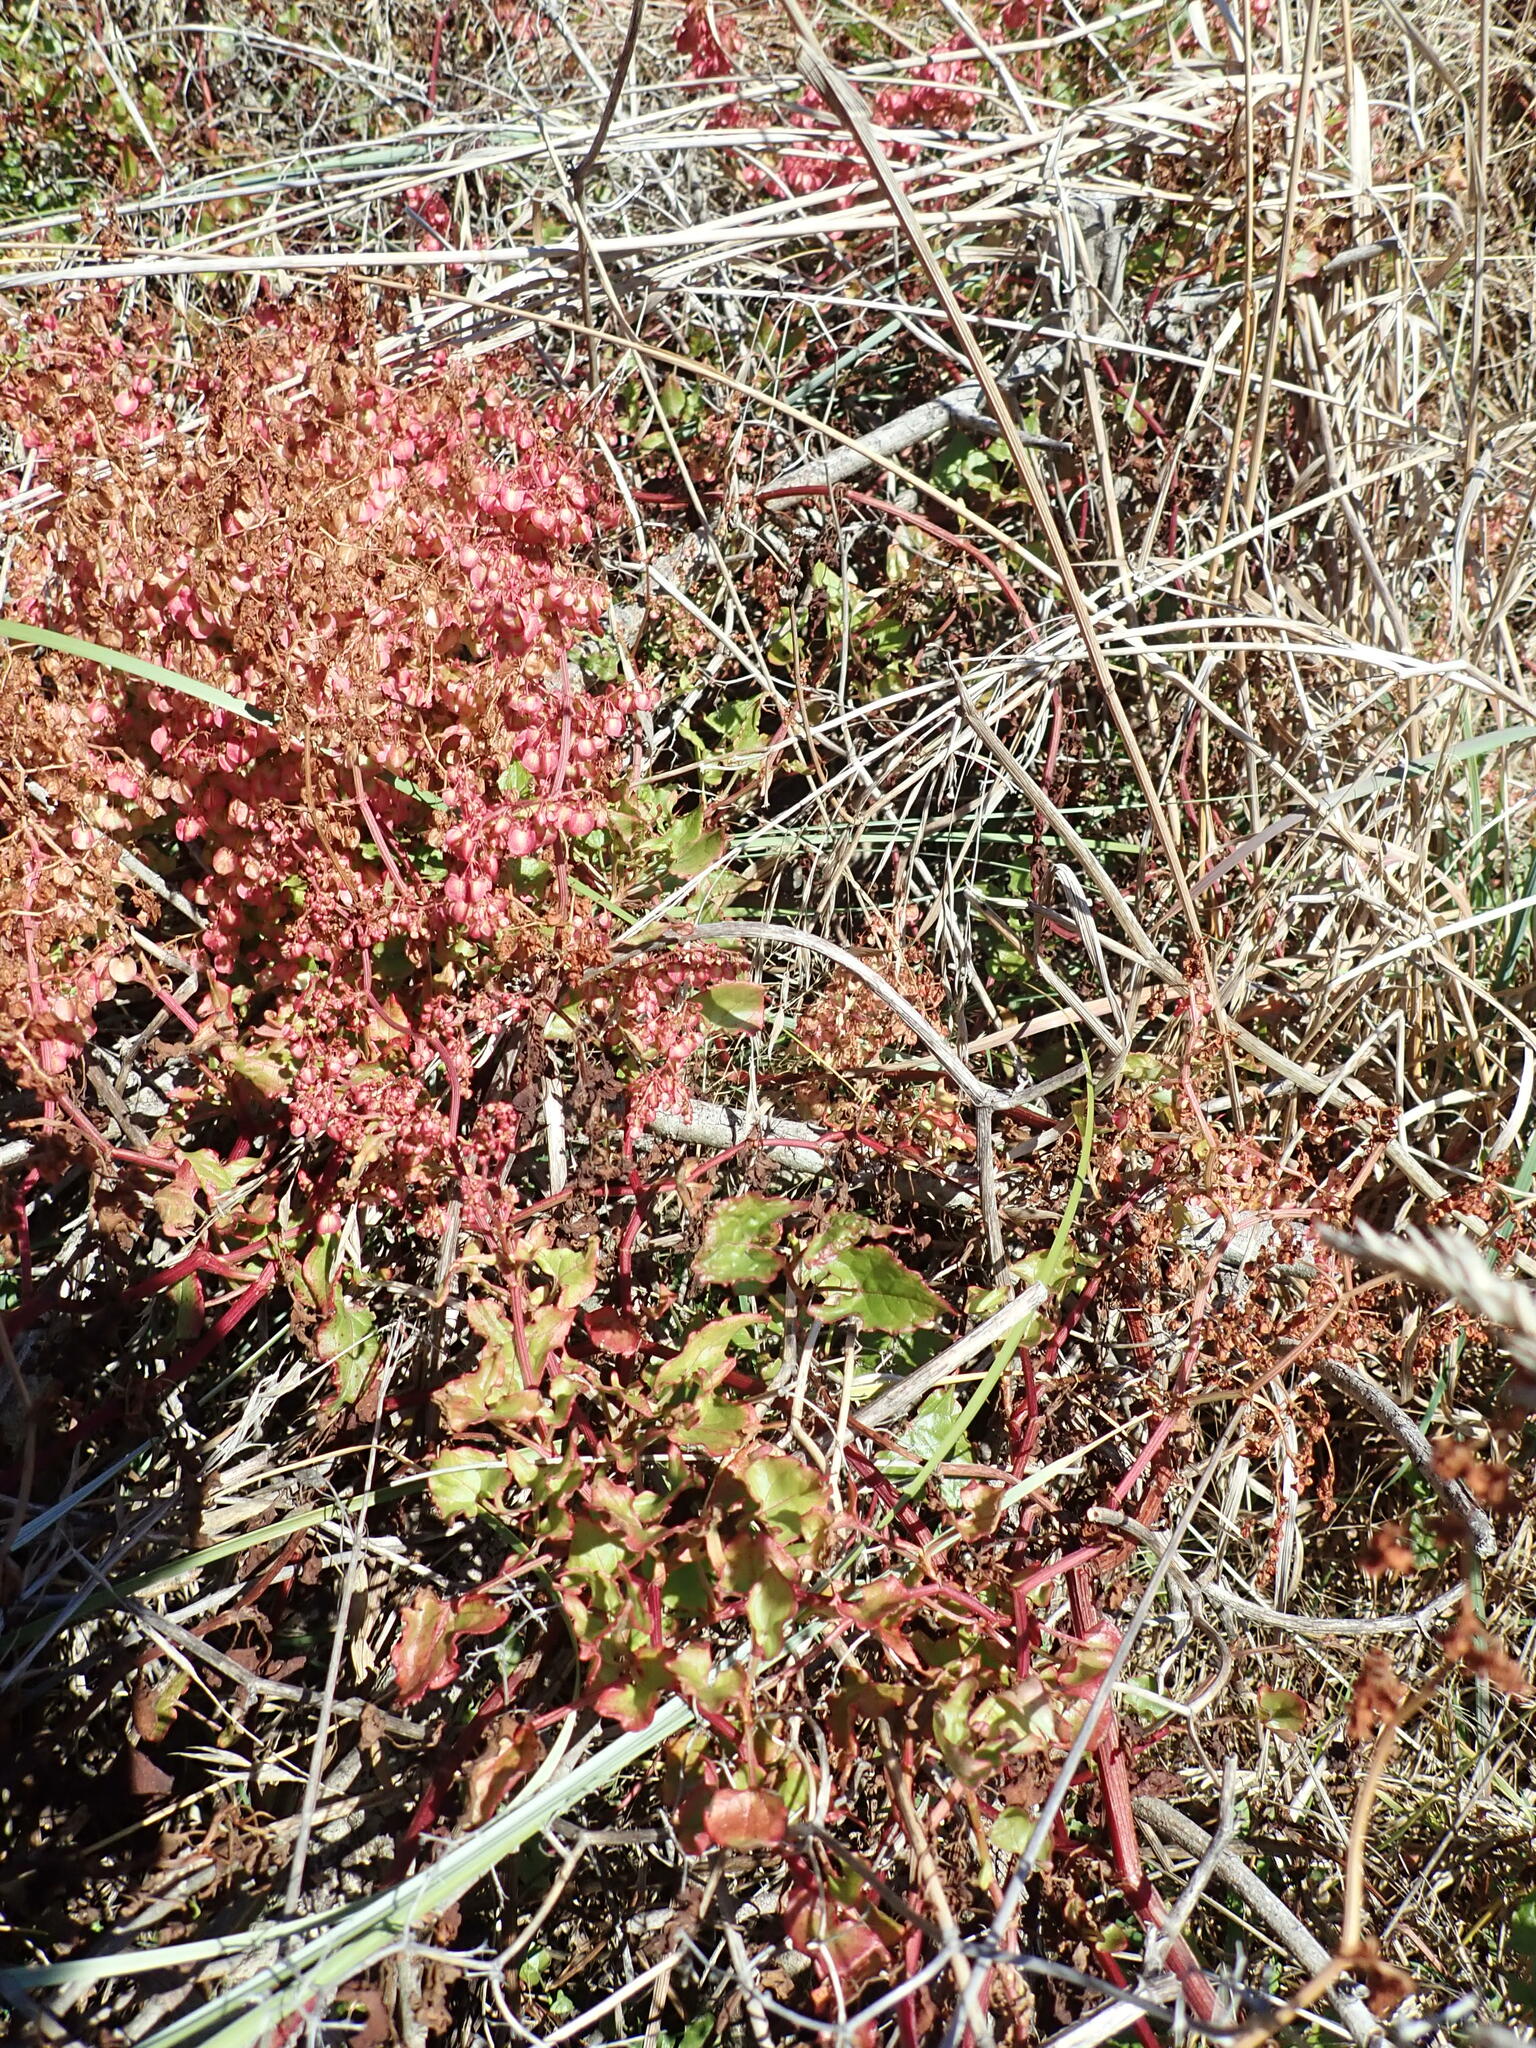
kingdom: Plantae
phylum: Tracheophyta
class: Magnoliopsida
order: Caryophyllales
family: Polygonaceae
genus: Rumex
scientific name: Rumex sagittatus
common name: Climbing dock
